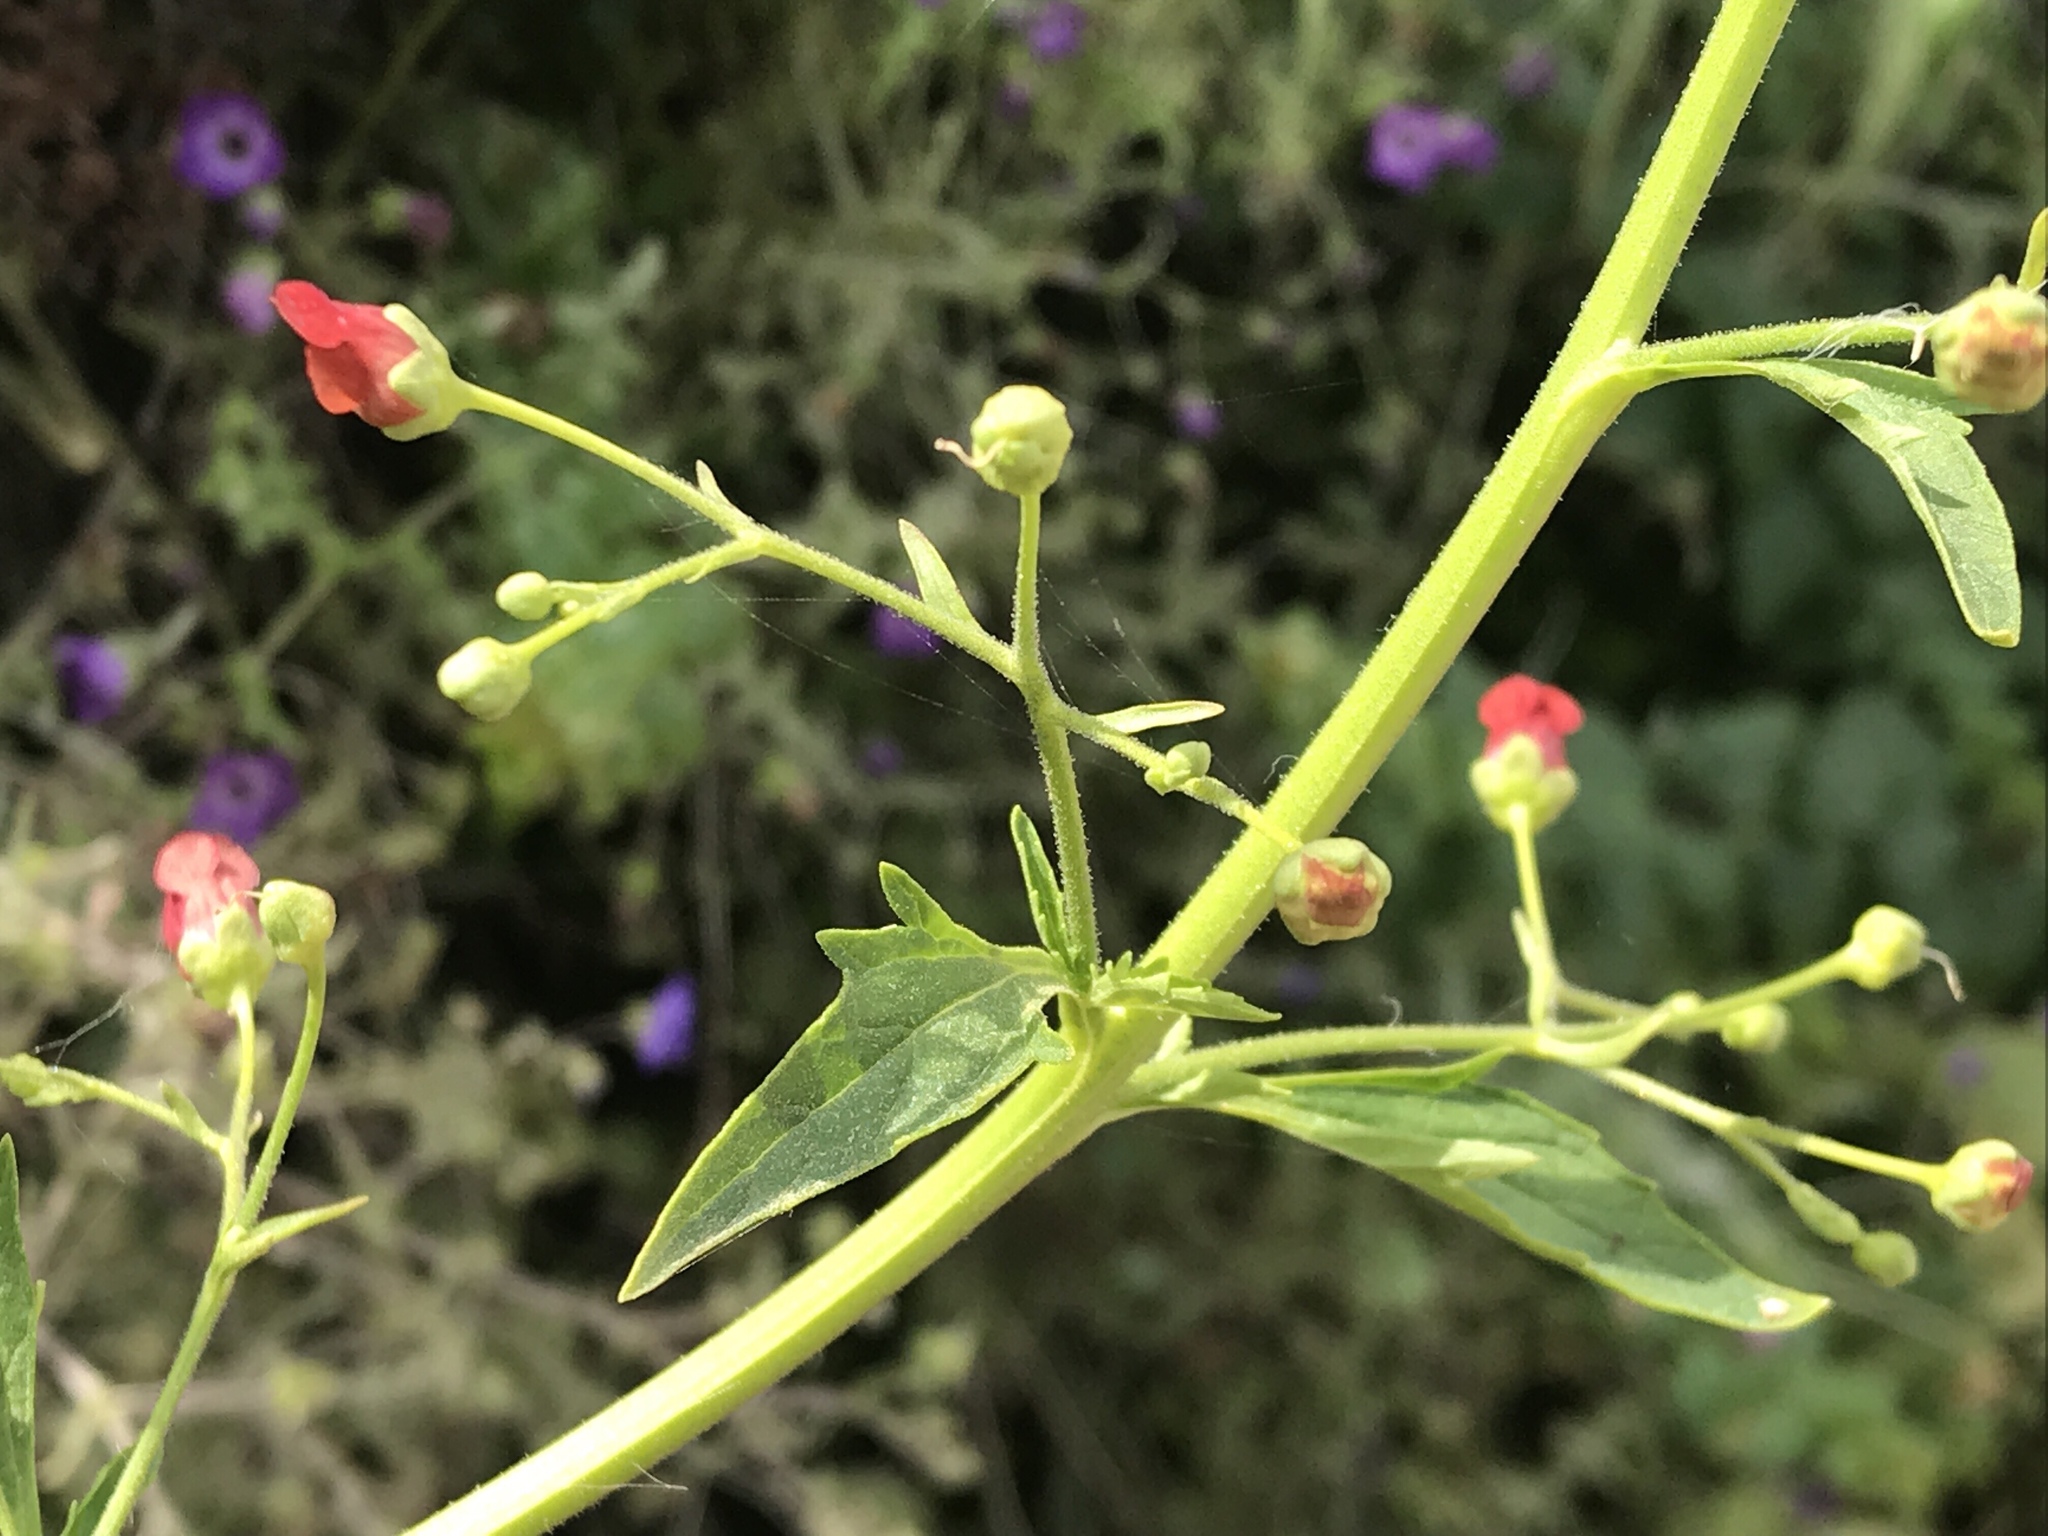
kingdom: Plantae
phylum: Tracheophyta
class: Magnoliopsida
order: Lamiales
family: Scrophulariaceae
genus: Scrophularia
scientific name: Scrophularia californica
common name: California figwort
